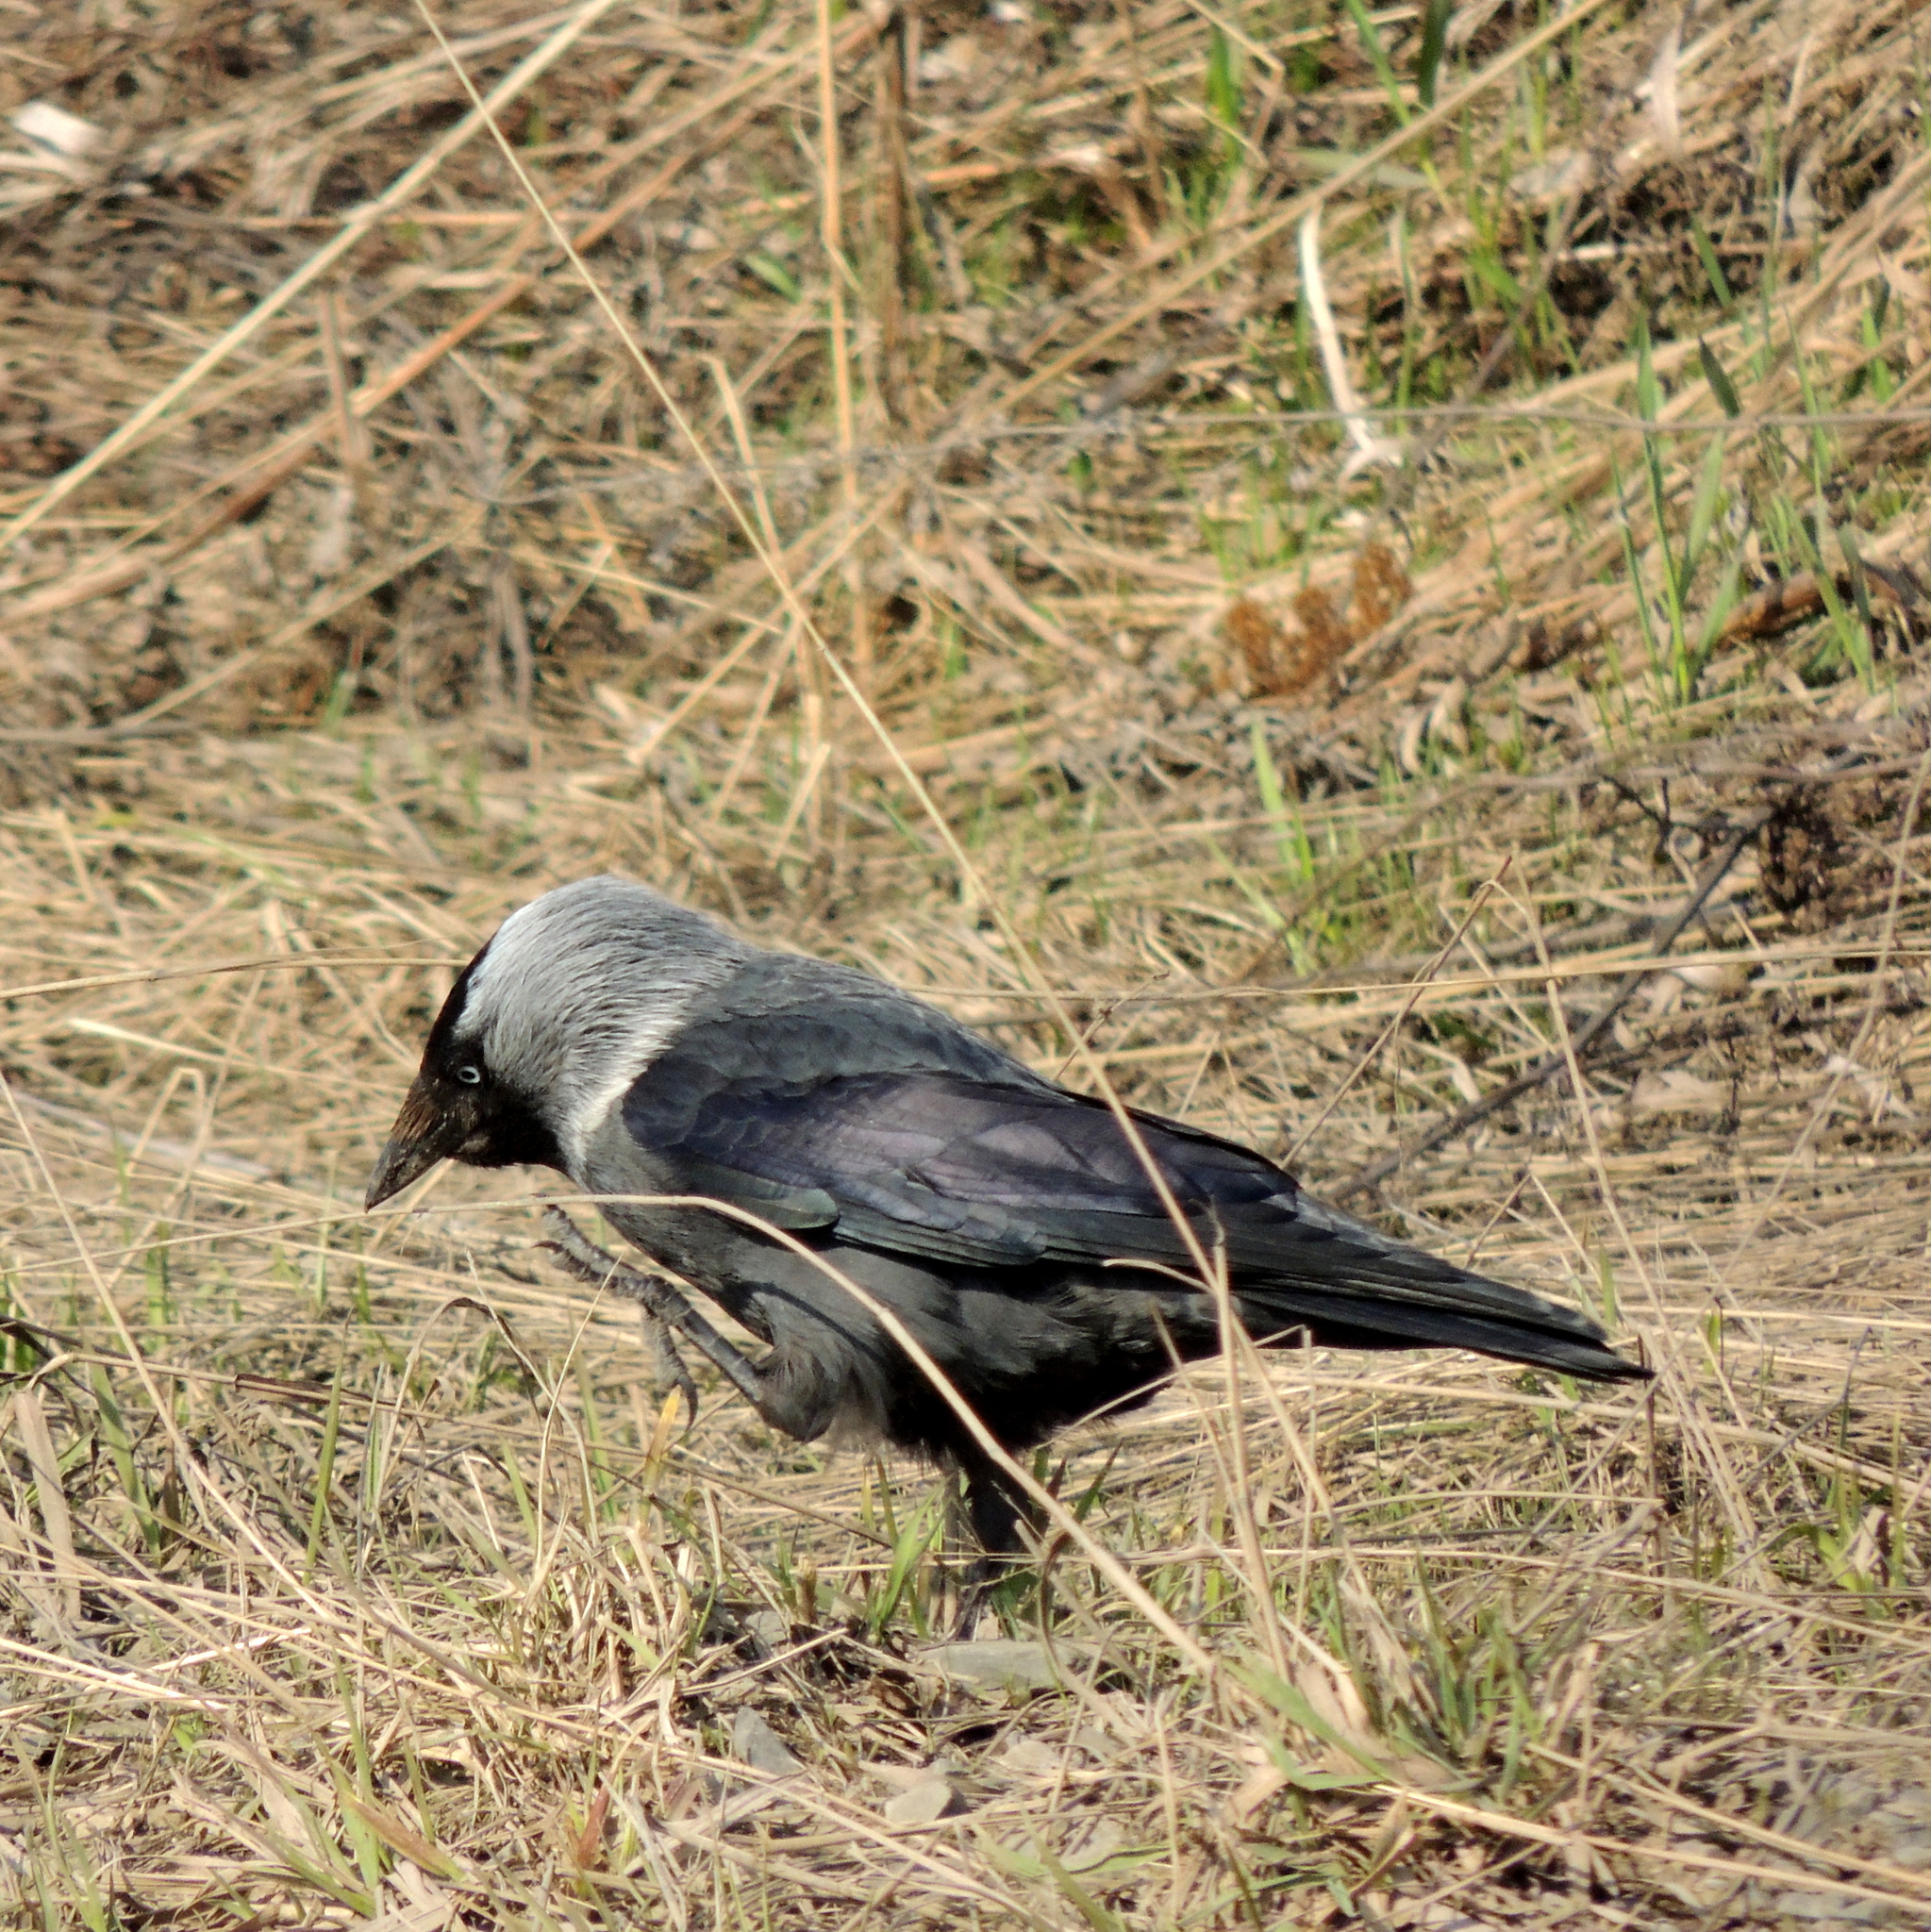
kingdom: Animalia
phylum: Chordata
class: Aves
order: Passeriformes
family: Corvidae
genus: Coloeus
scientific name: Coloeus monedula
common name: Western jackdaw
